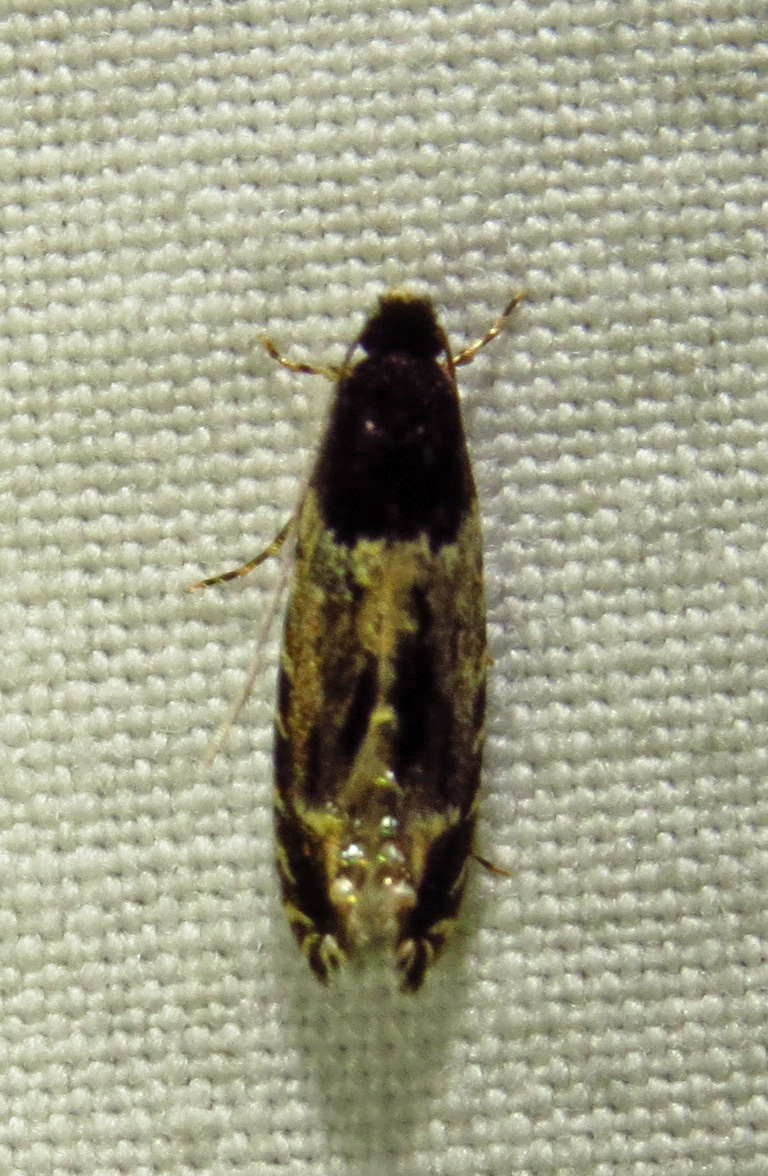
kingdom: Animalia
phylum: Arthropoda
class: Insecta
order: Lepidoptera
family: Meessiidae
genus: Homosetia
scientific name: Homosetia argentinotella
